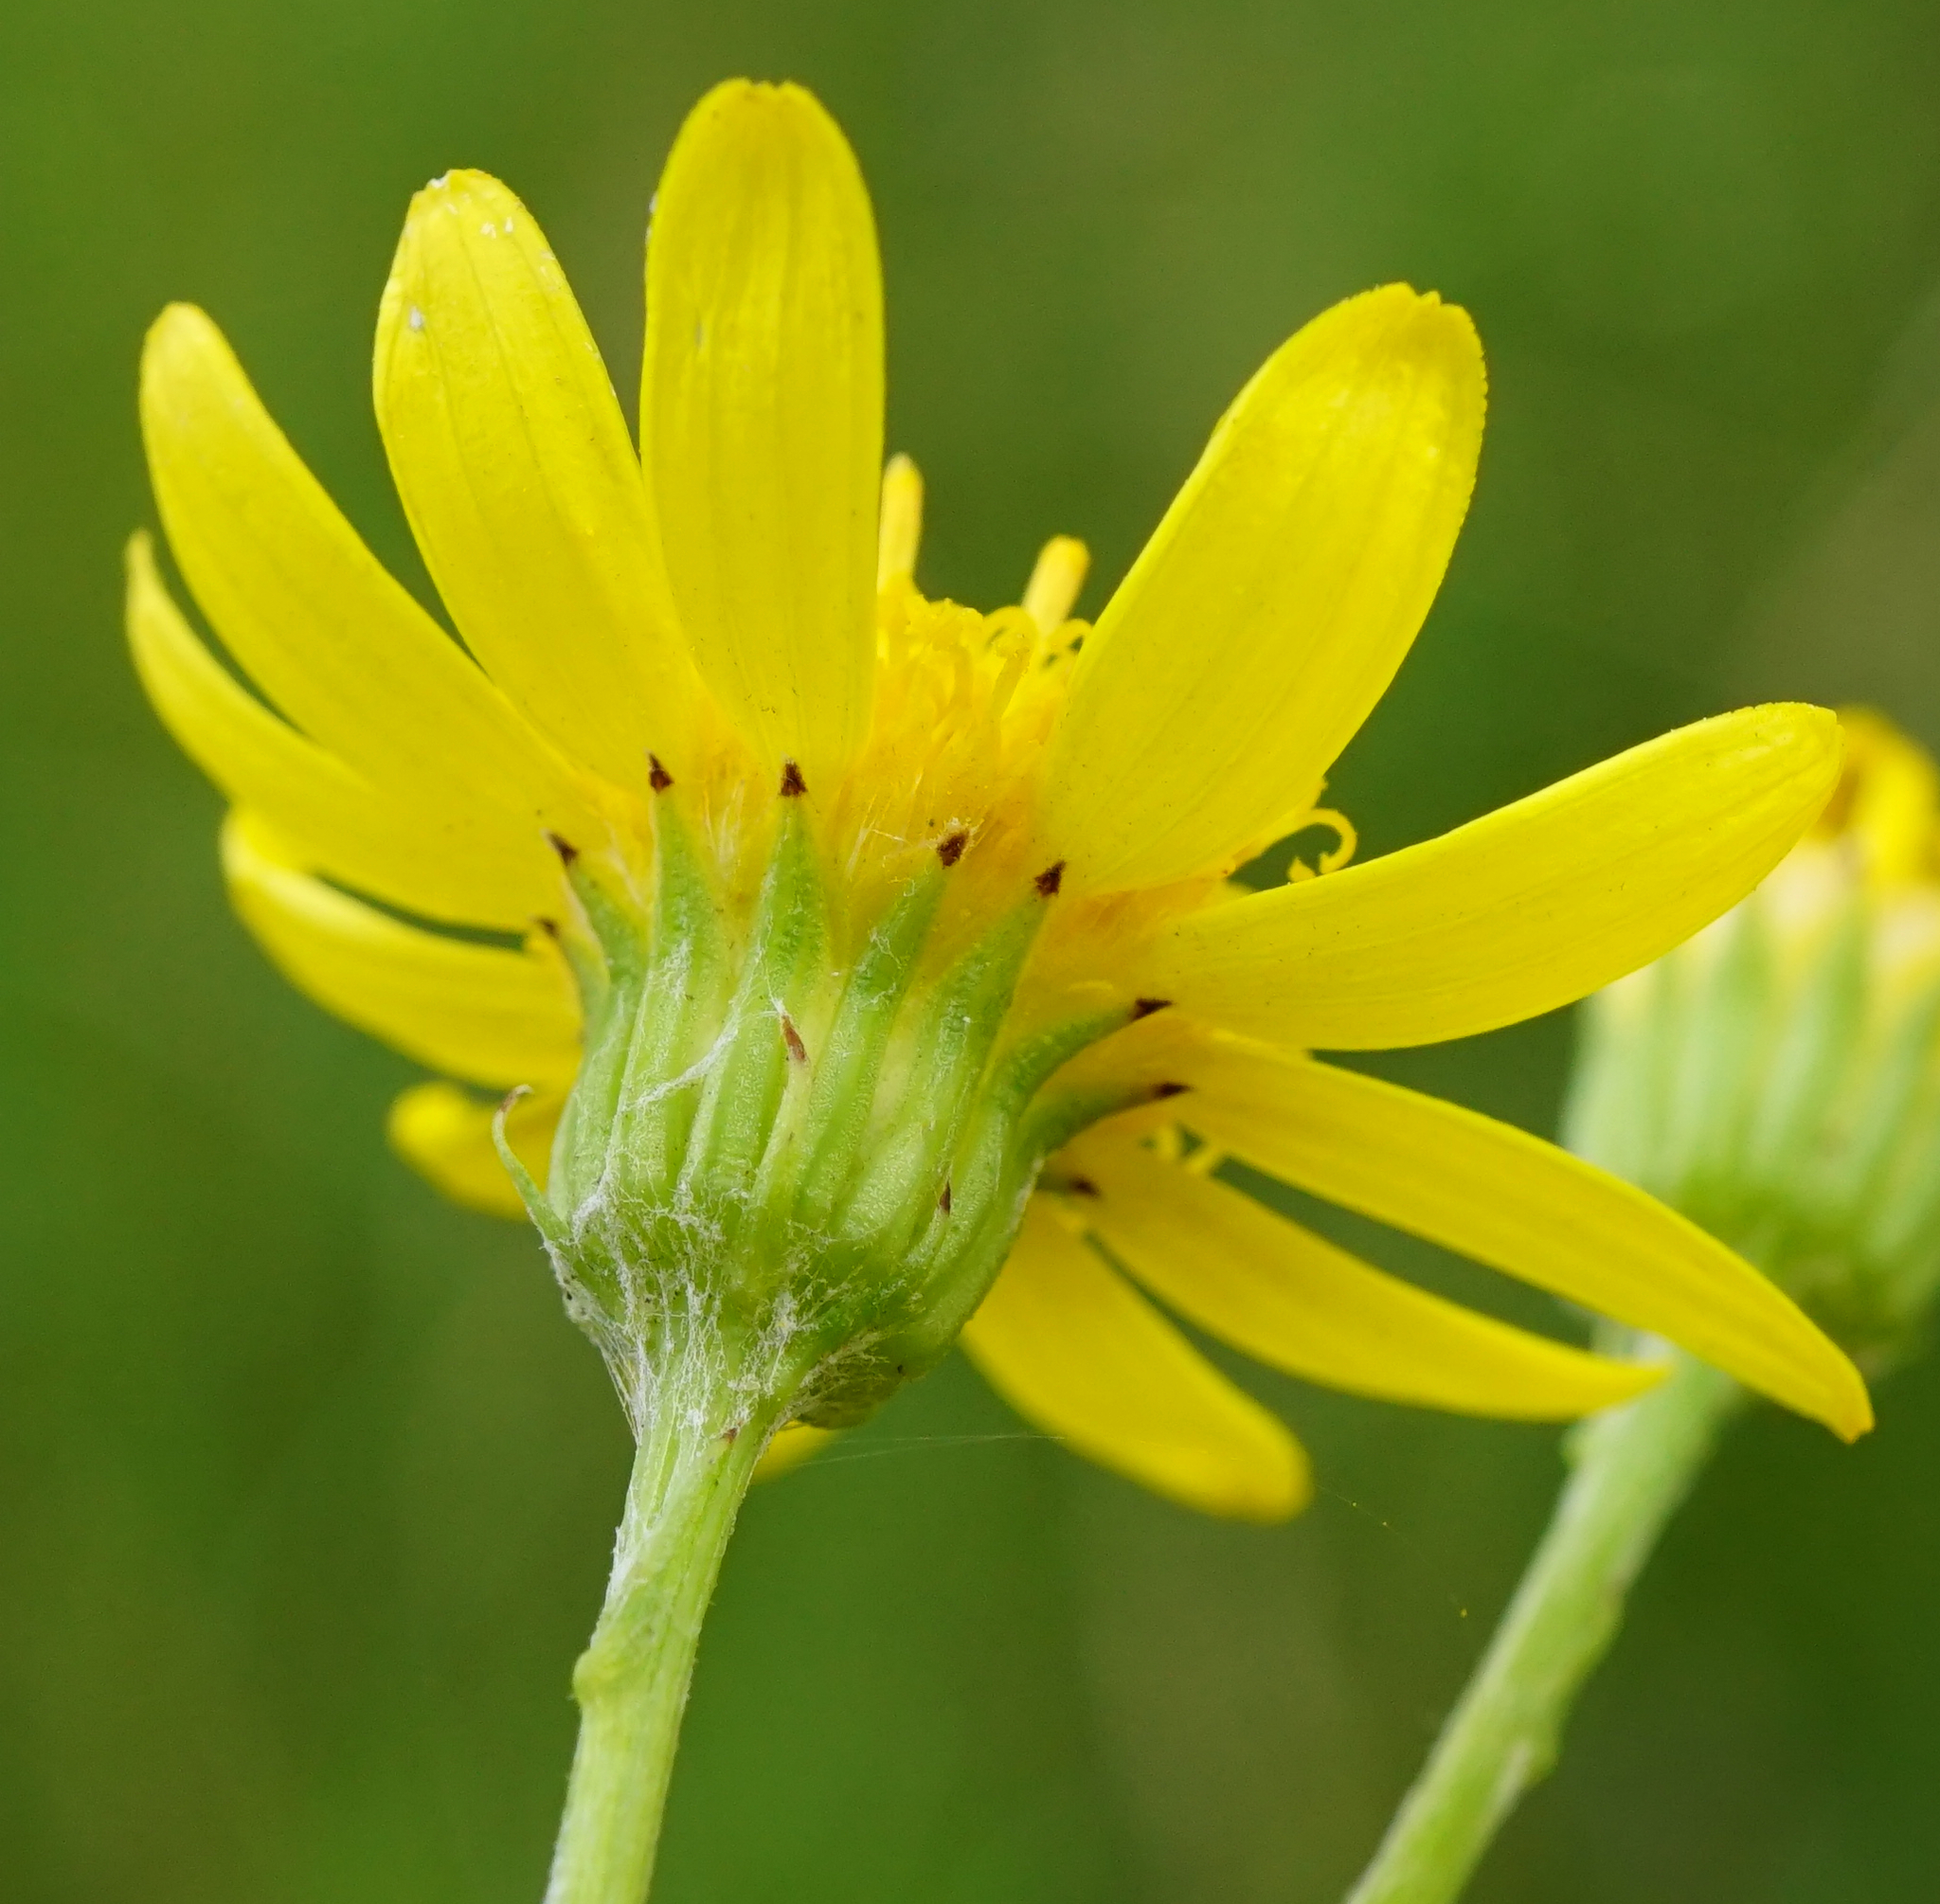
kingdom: Plantae
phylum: Tracheophyta
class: Magnoliopsida
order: Asterales
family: Asteraceae
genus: Jacobaea
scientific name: Jacobaea vulgaris
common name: Stinking willie
